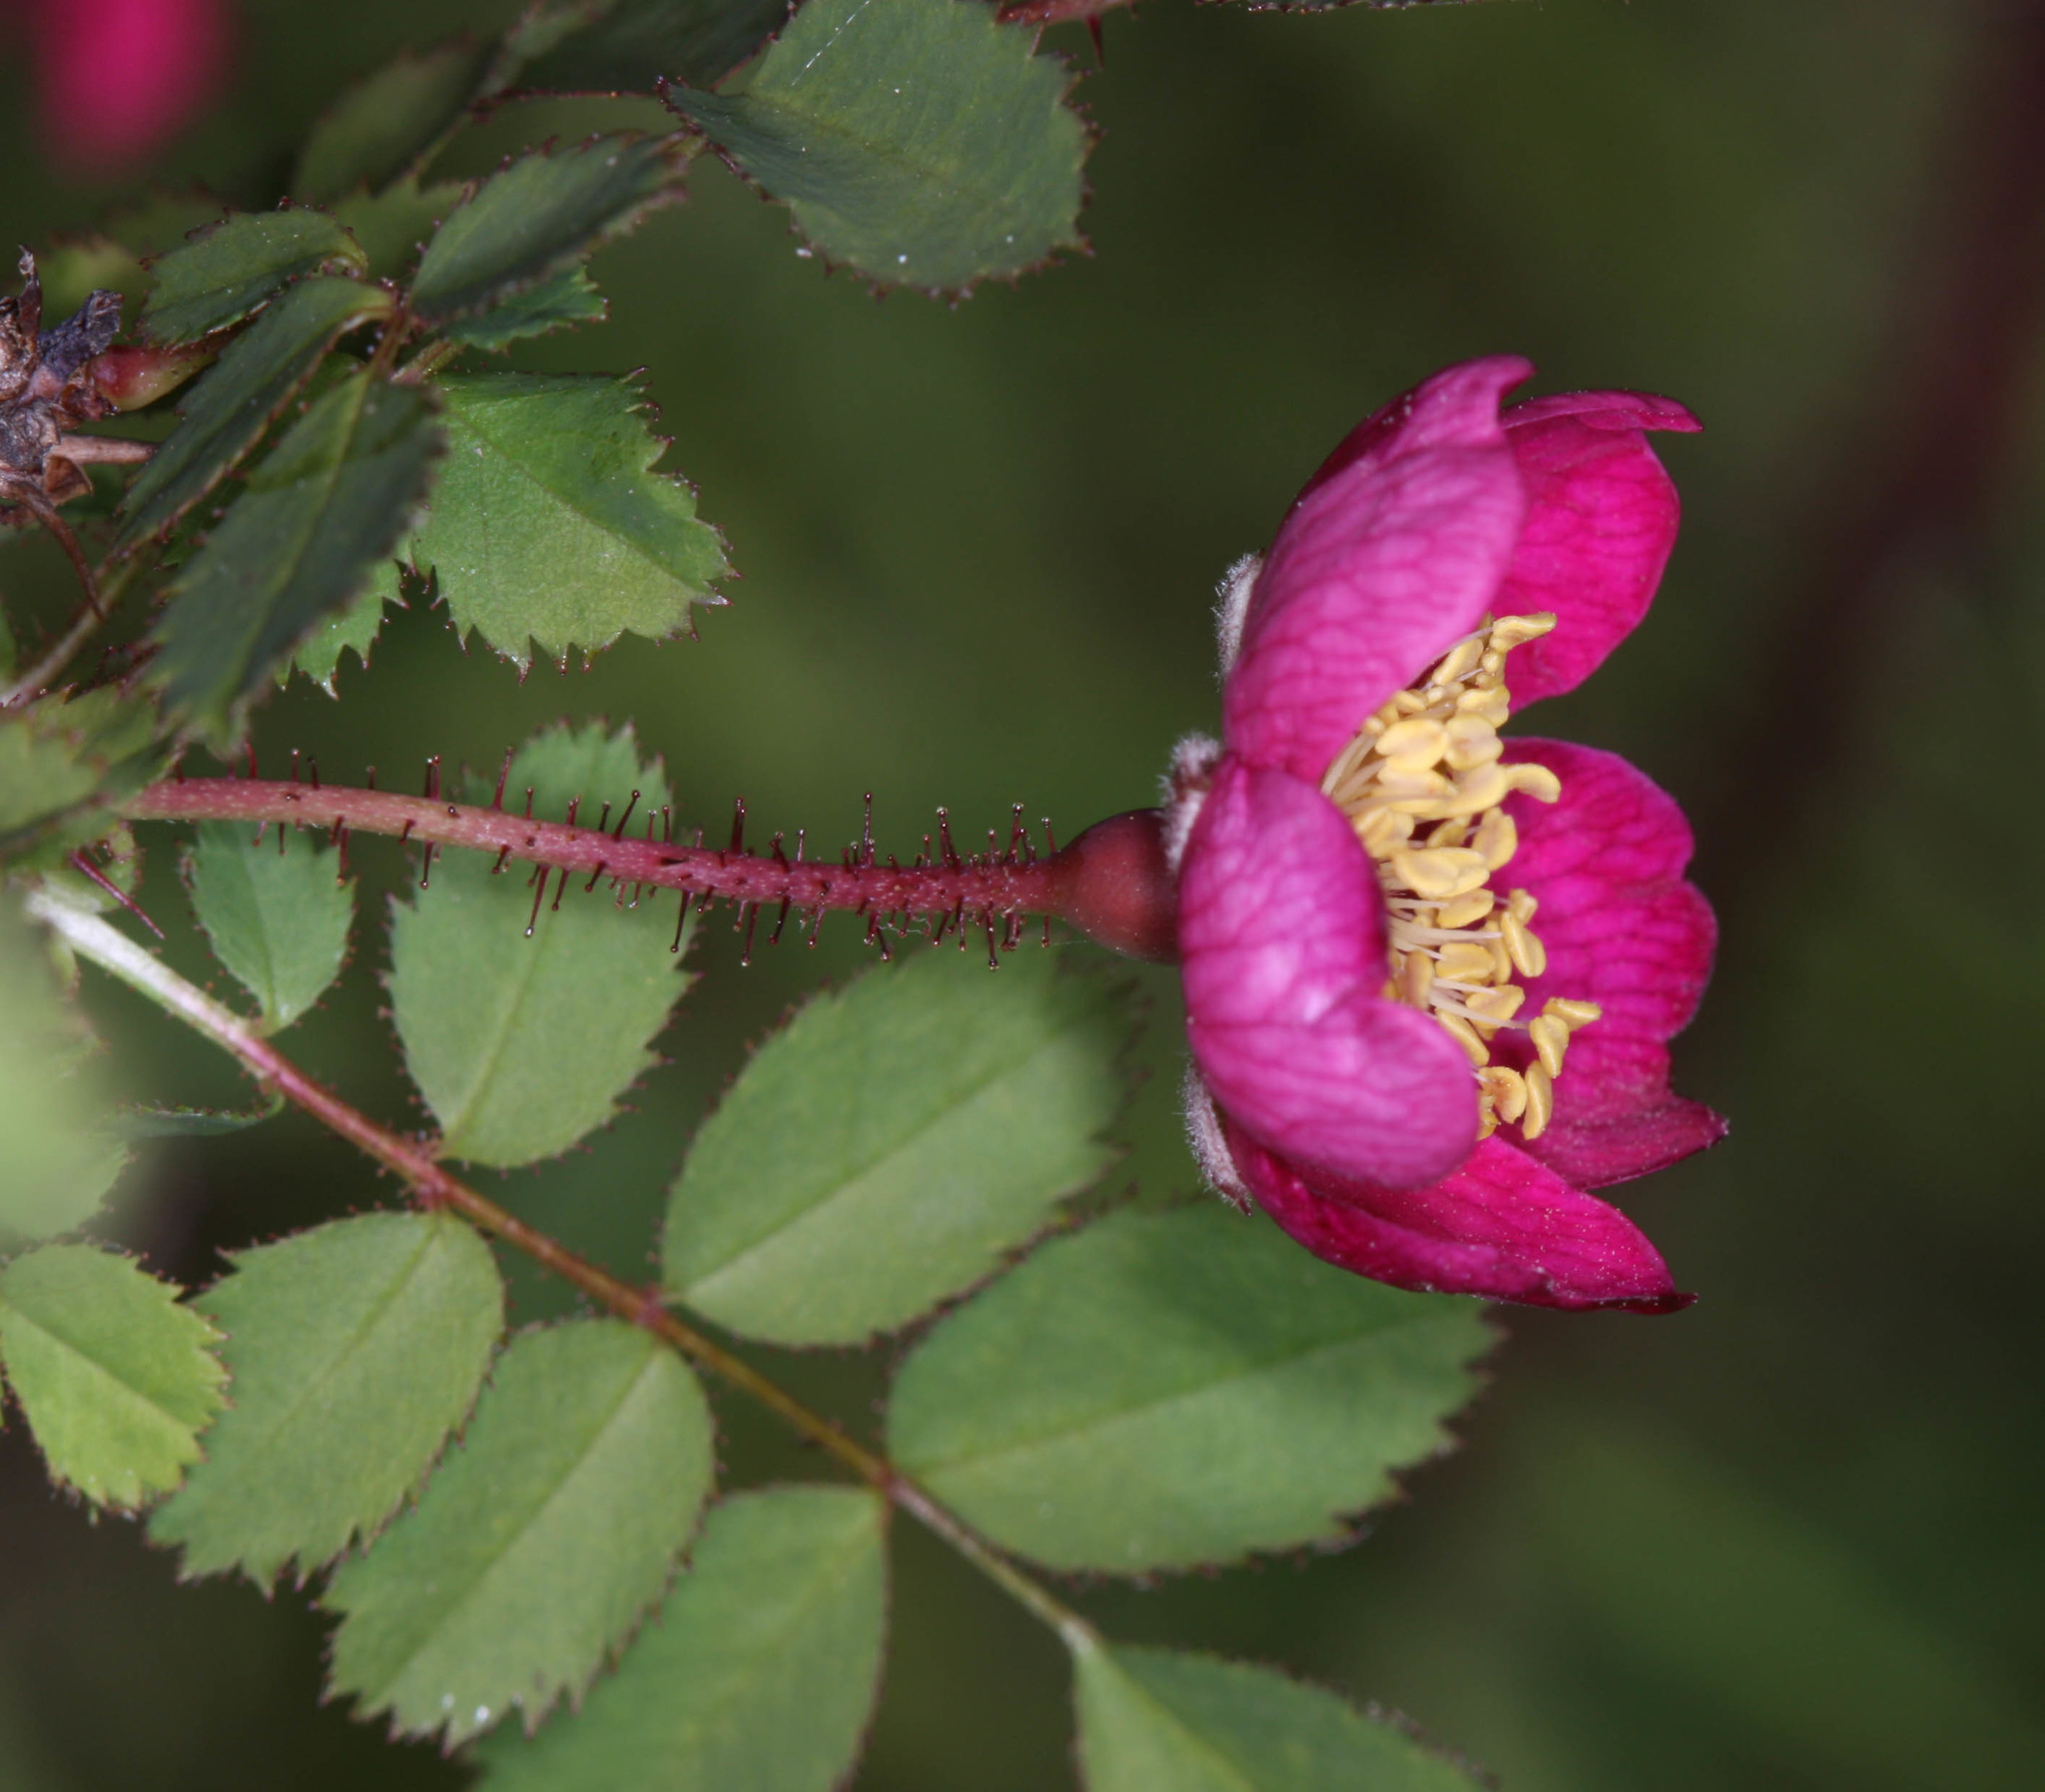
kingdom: Plantae
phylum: Tracheophyta
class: Magnoliopsida
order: Rosales
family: Rosaceae
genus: Rosa
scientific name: Rosa gymnocarpa
